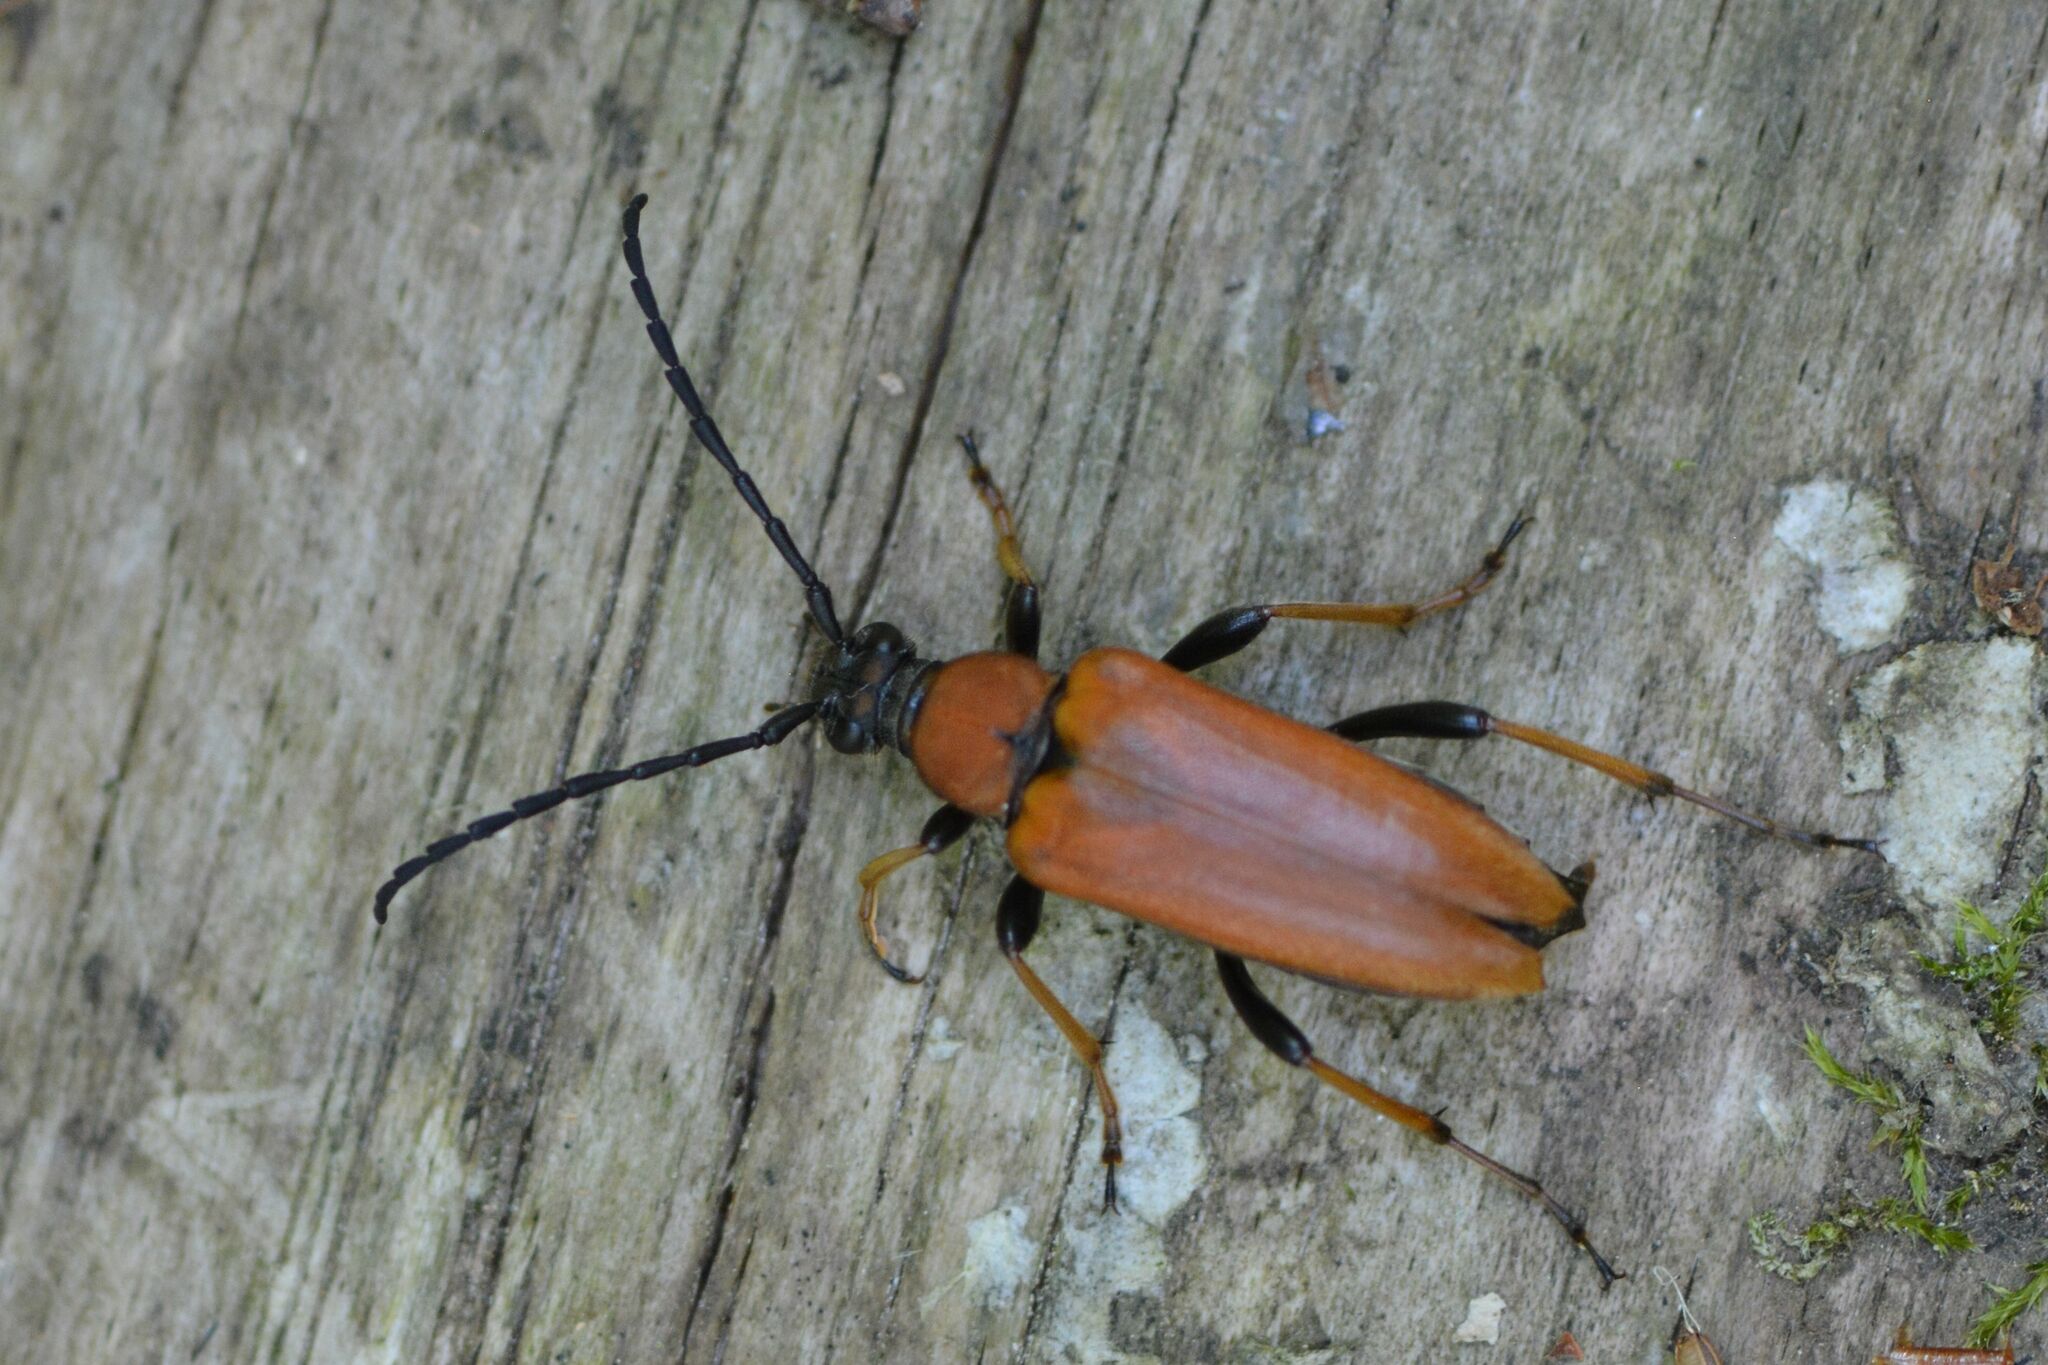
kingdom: Animalia
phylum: Arthropoda
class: Insecta
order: Coleoptera
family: Cerambycidae
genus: Stictoleptura
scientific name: Stictoleptura rubra
